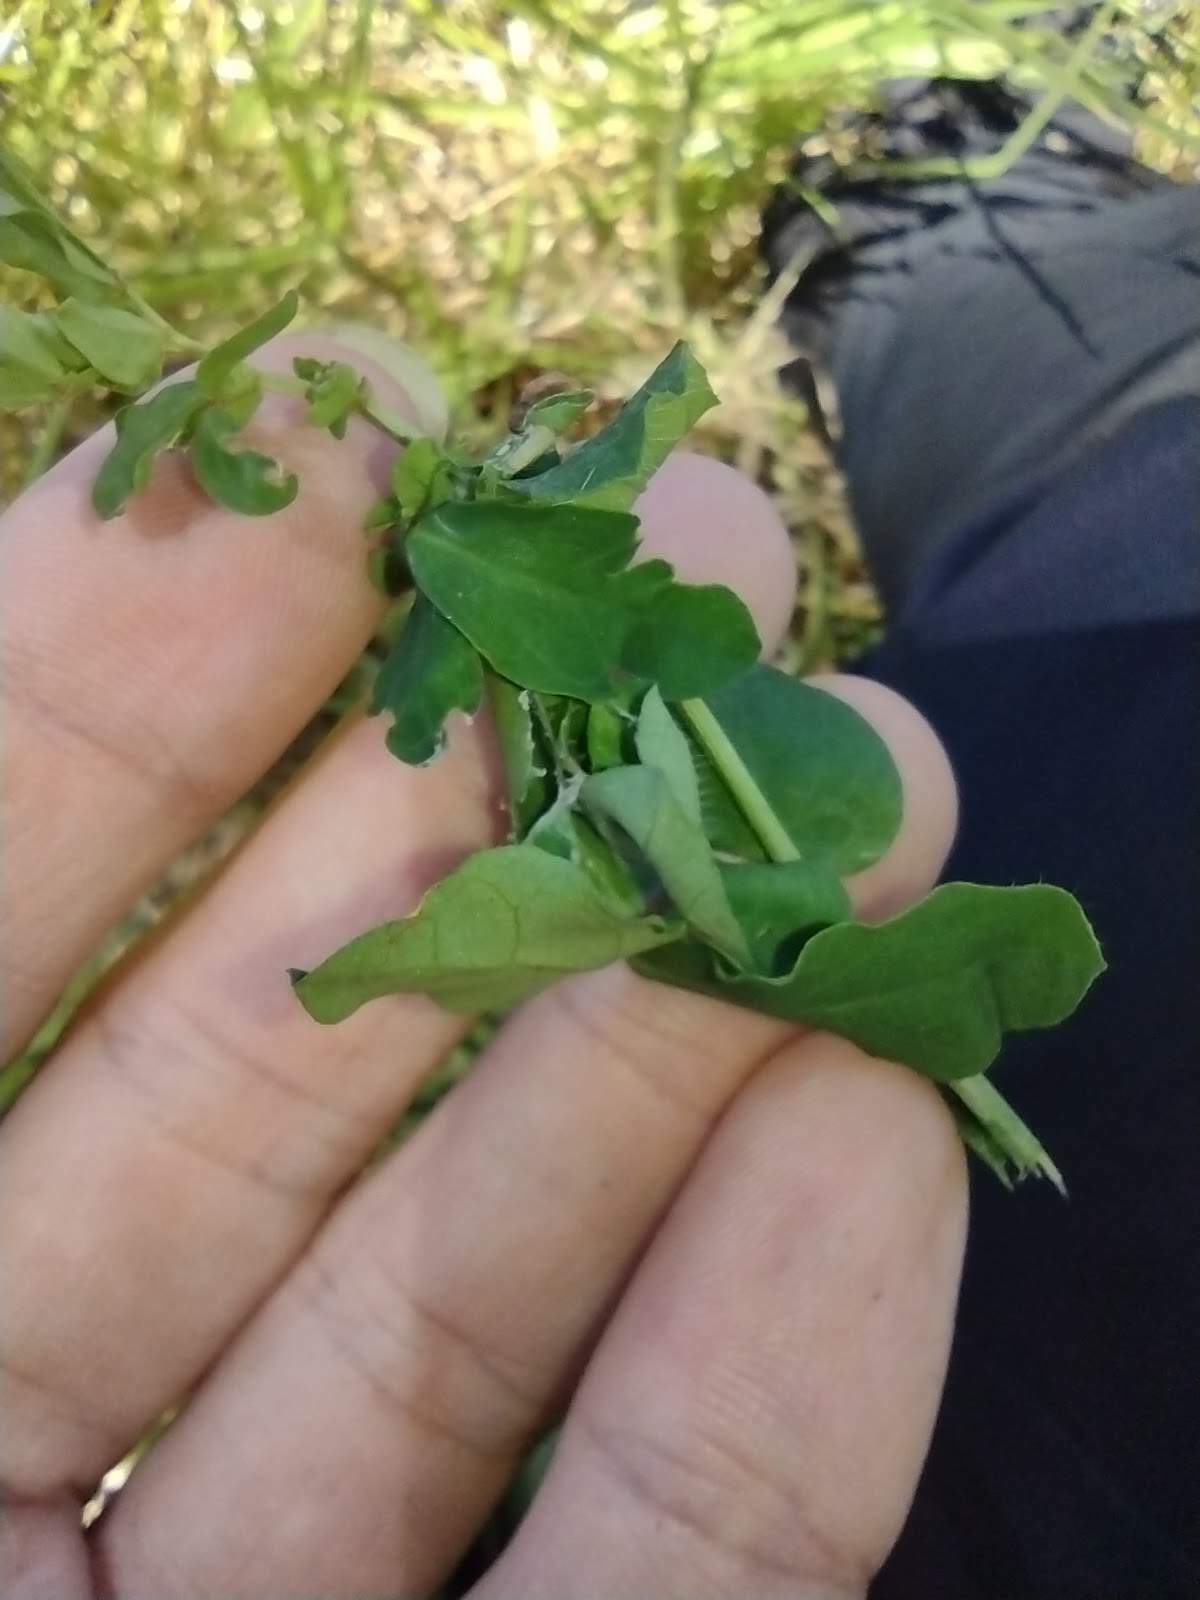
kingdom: Animalia
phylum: Arthropoda
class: Insecta
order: Lepidoptera
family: Tortricidae
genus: Amorbia
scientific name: Amorbia emigratella
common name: Mexican leafroller
